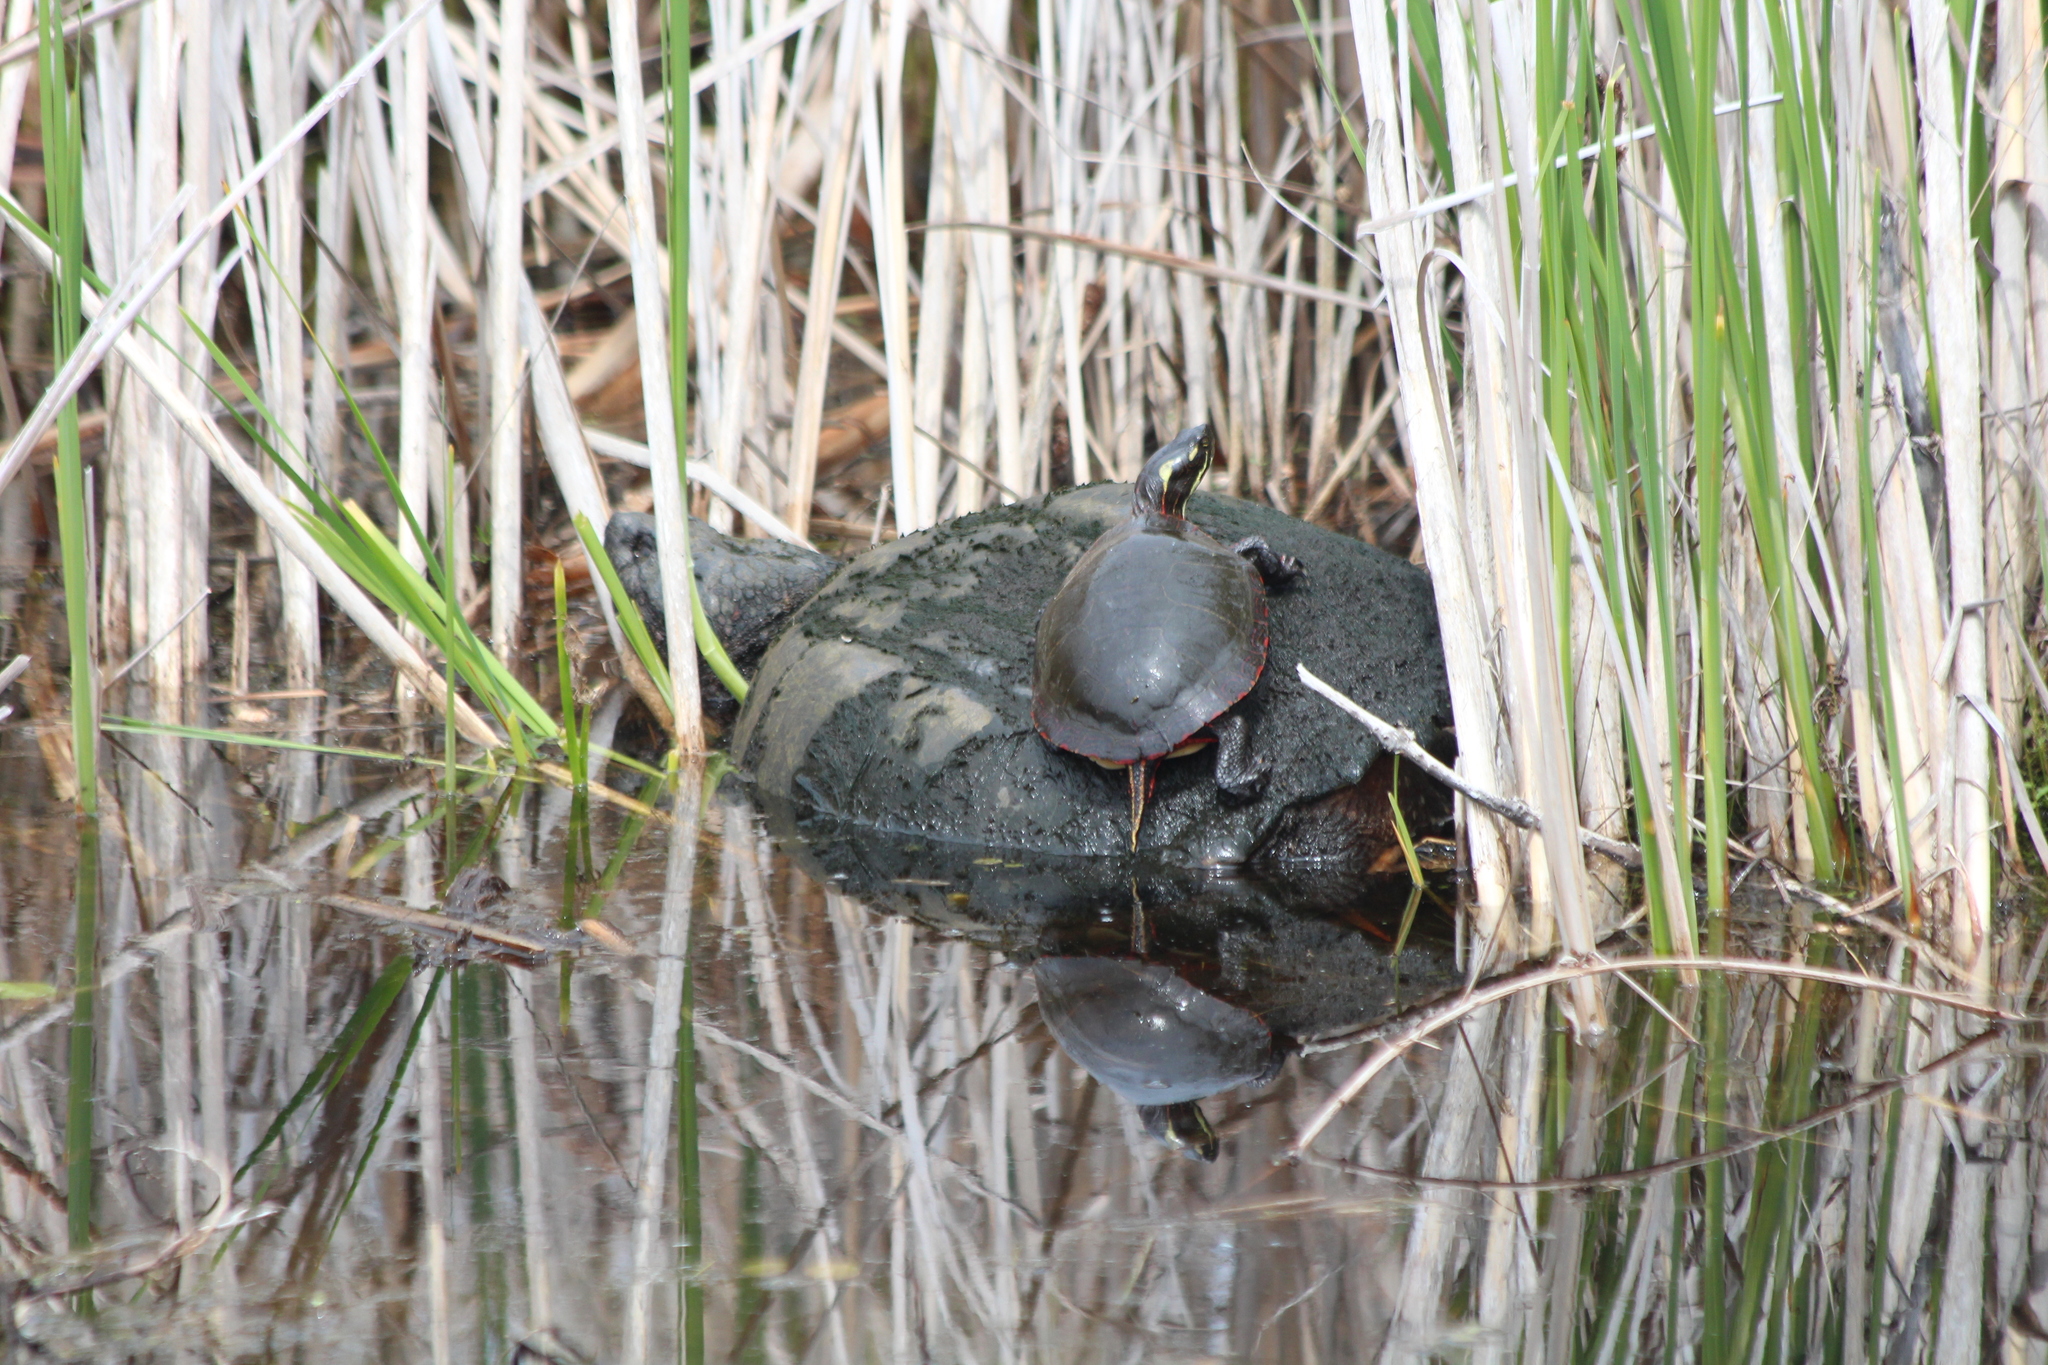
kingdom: Animalia
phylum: Chordata
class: Testudines
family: Emydidae
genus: Chrysemys
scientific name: Chrysemys picta
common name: Painted turtle
